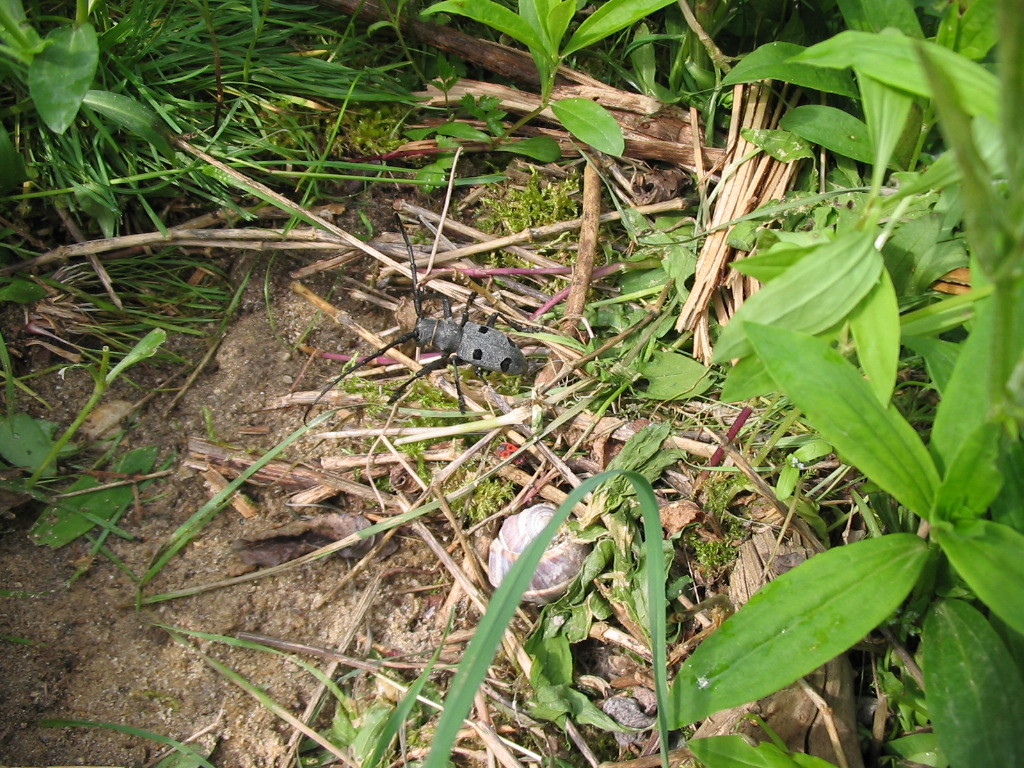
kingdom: Animalia
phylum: Arthropoda
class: Insecta
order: Coleoptera
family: Cerambycidae
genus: Morimus
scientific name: Morimus funereus
